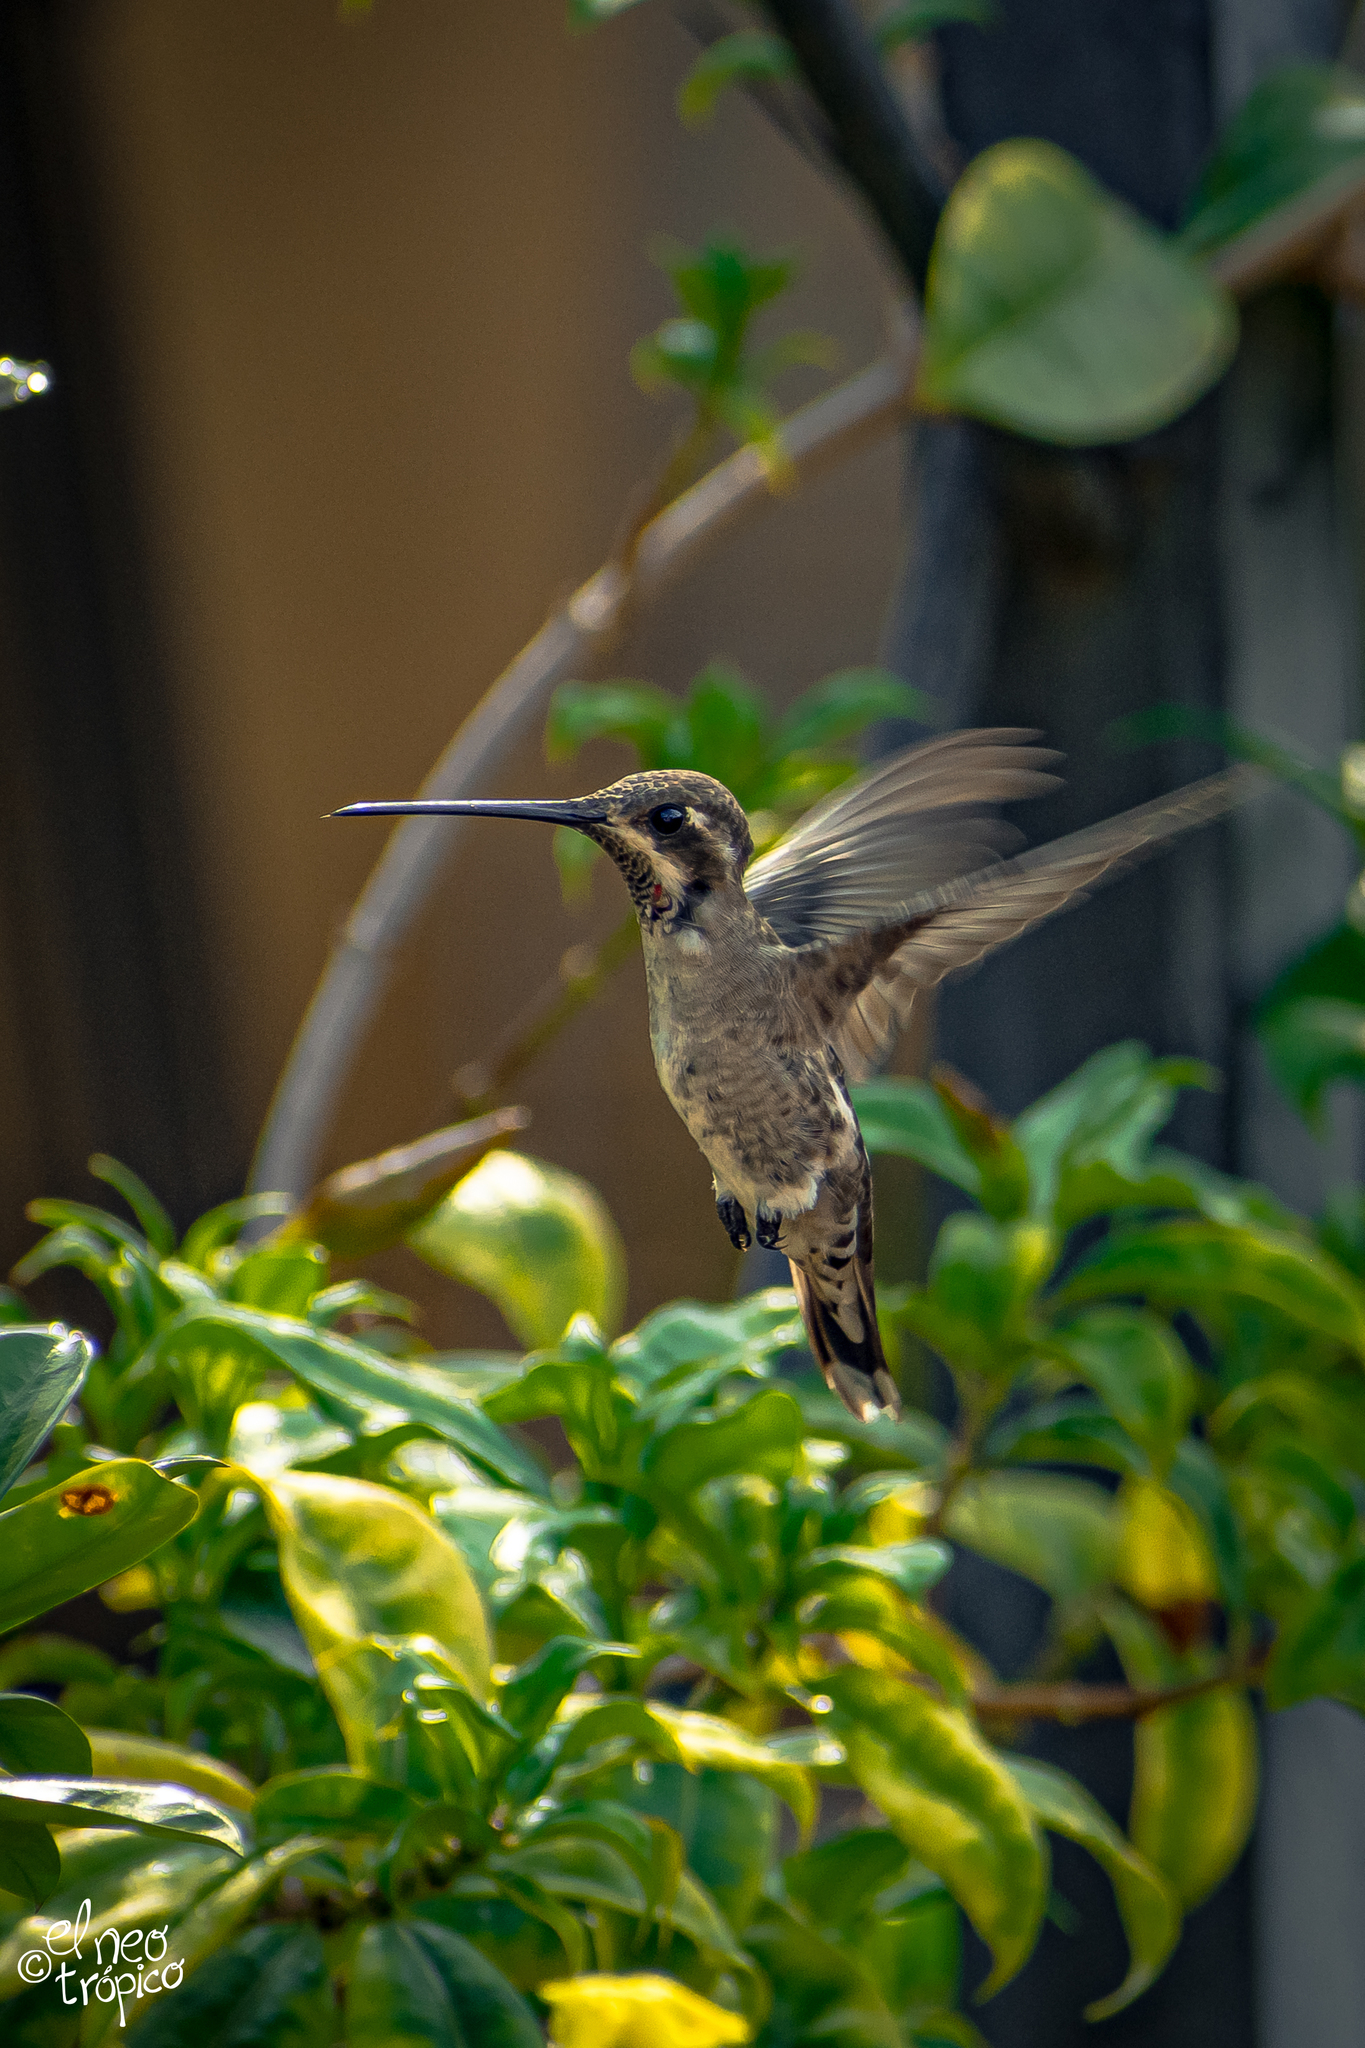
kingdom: Animalia
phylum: Chordata
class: Aves
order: Apodiformes
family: Trochilidae
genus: Heliomaster
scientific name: Heliomaster constantii
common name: Plain-capped starthroat
